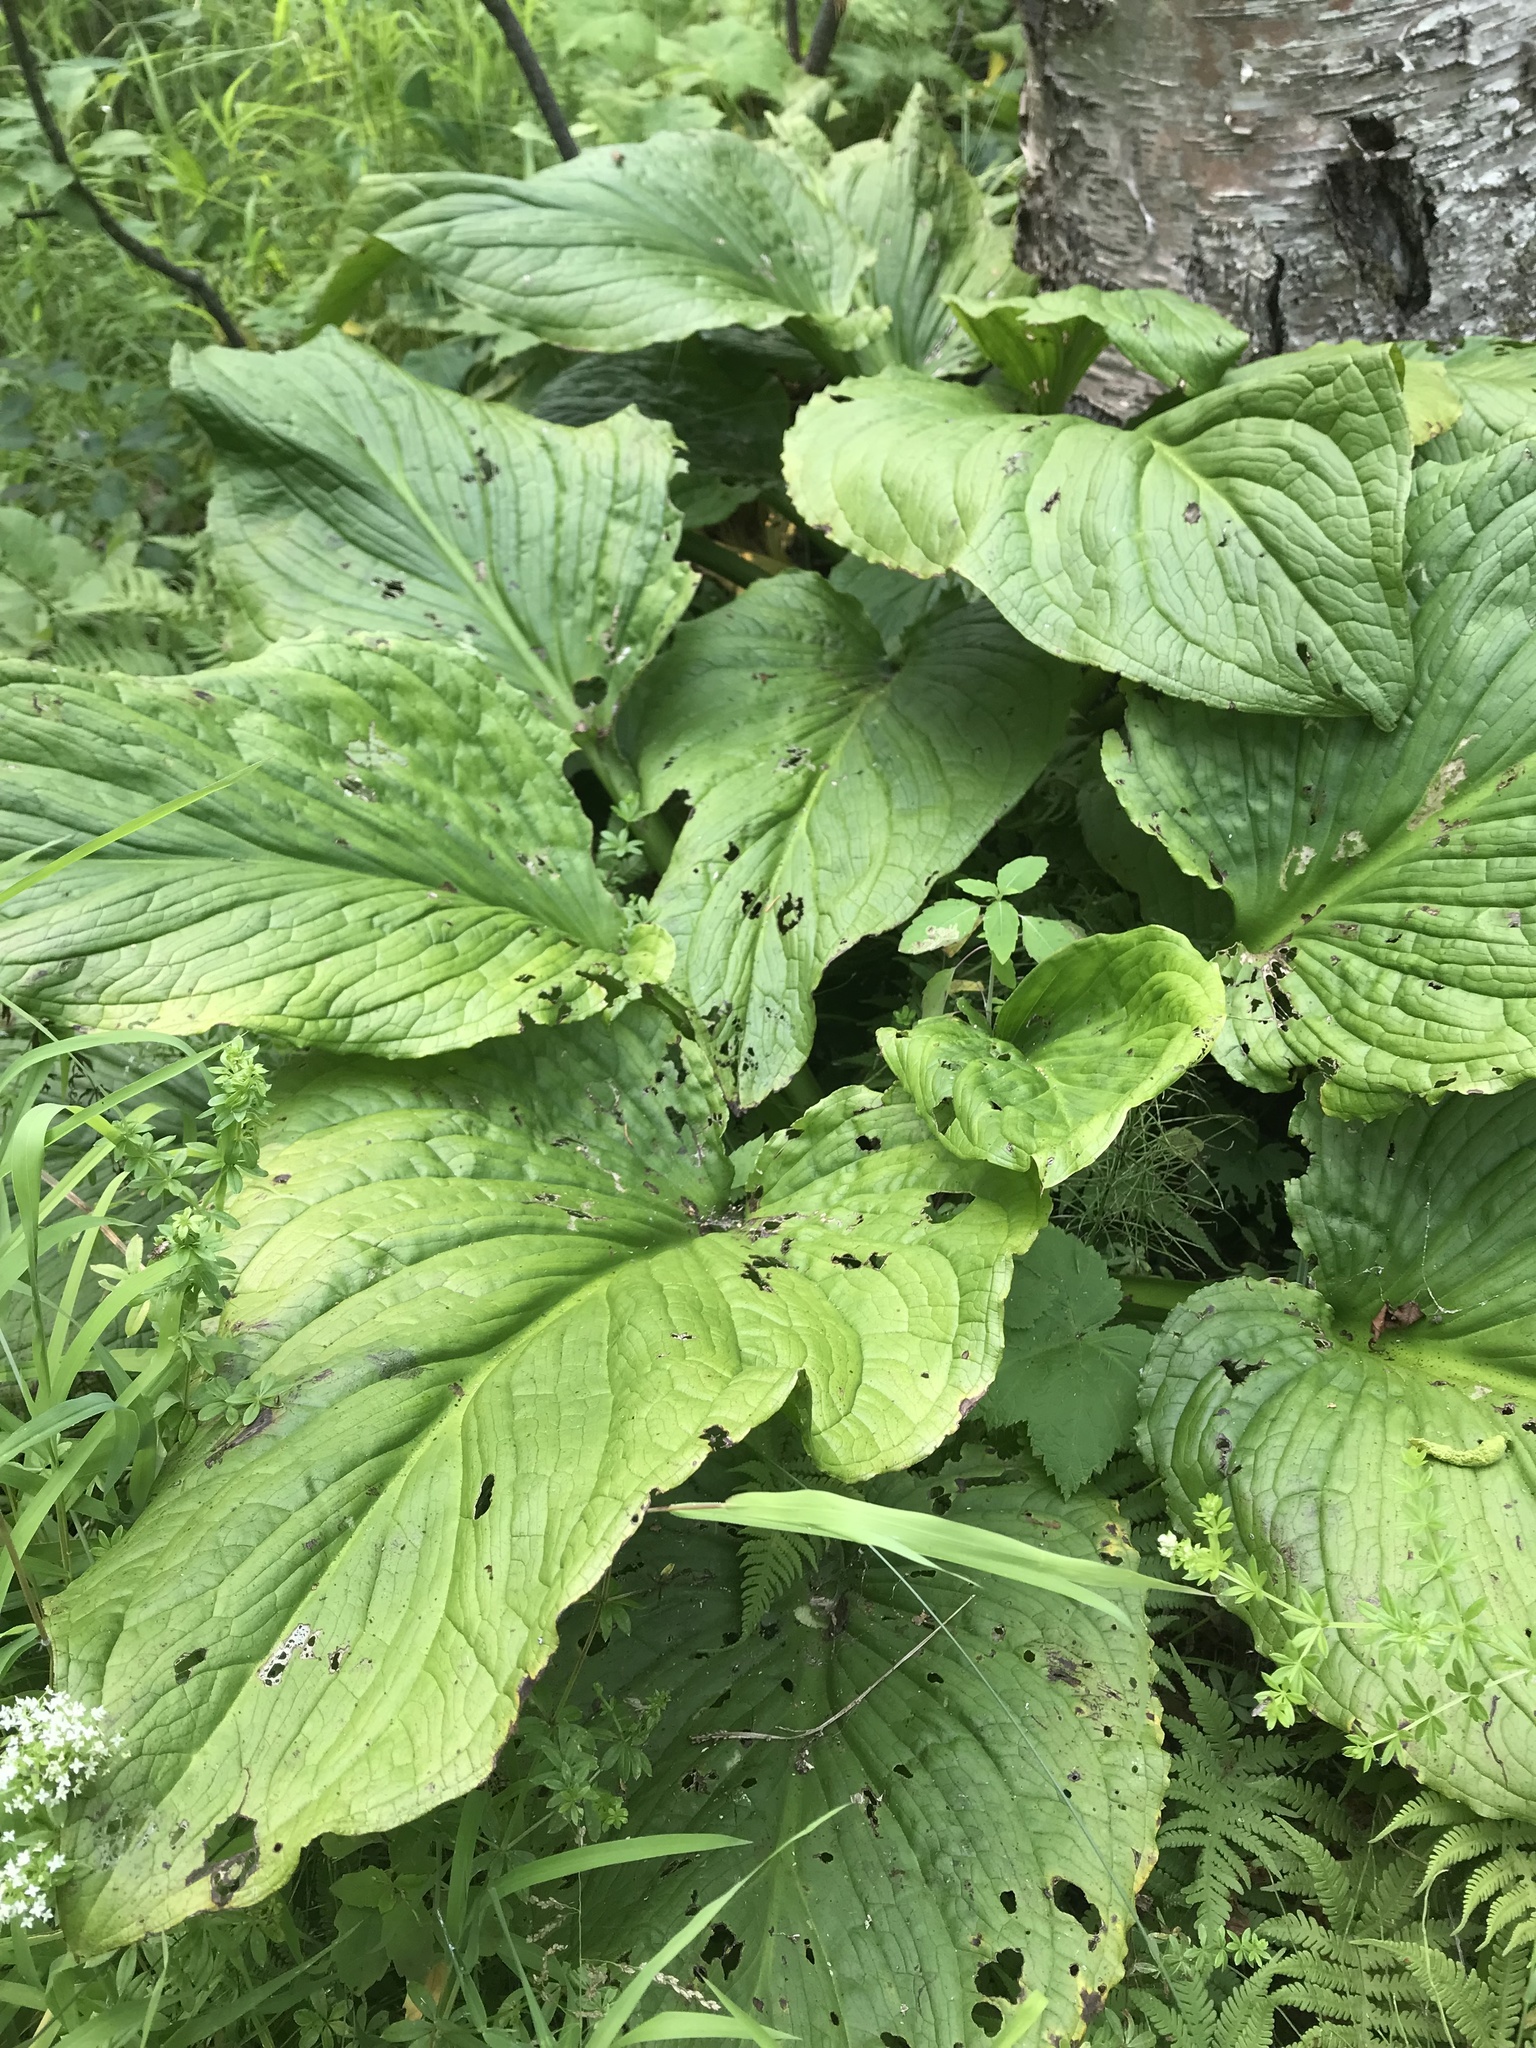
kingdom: Plantae
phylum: Tracheophyta
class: Liliopsida
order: Alismatales
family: Araceae
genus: Symplocarpus
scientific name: Symplocarpus foetidus
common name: Eastern skunk cabbage
